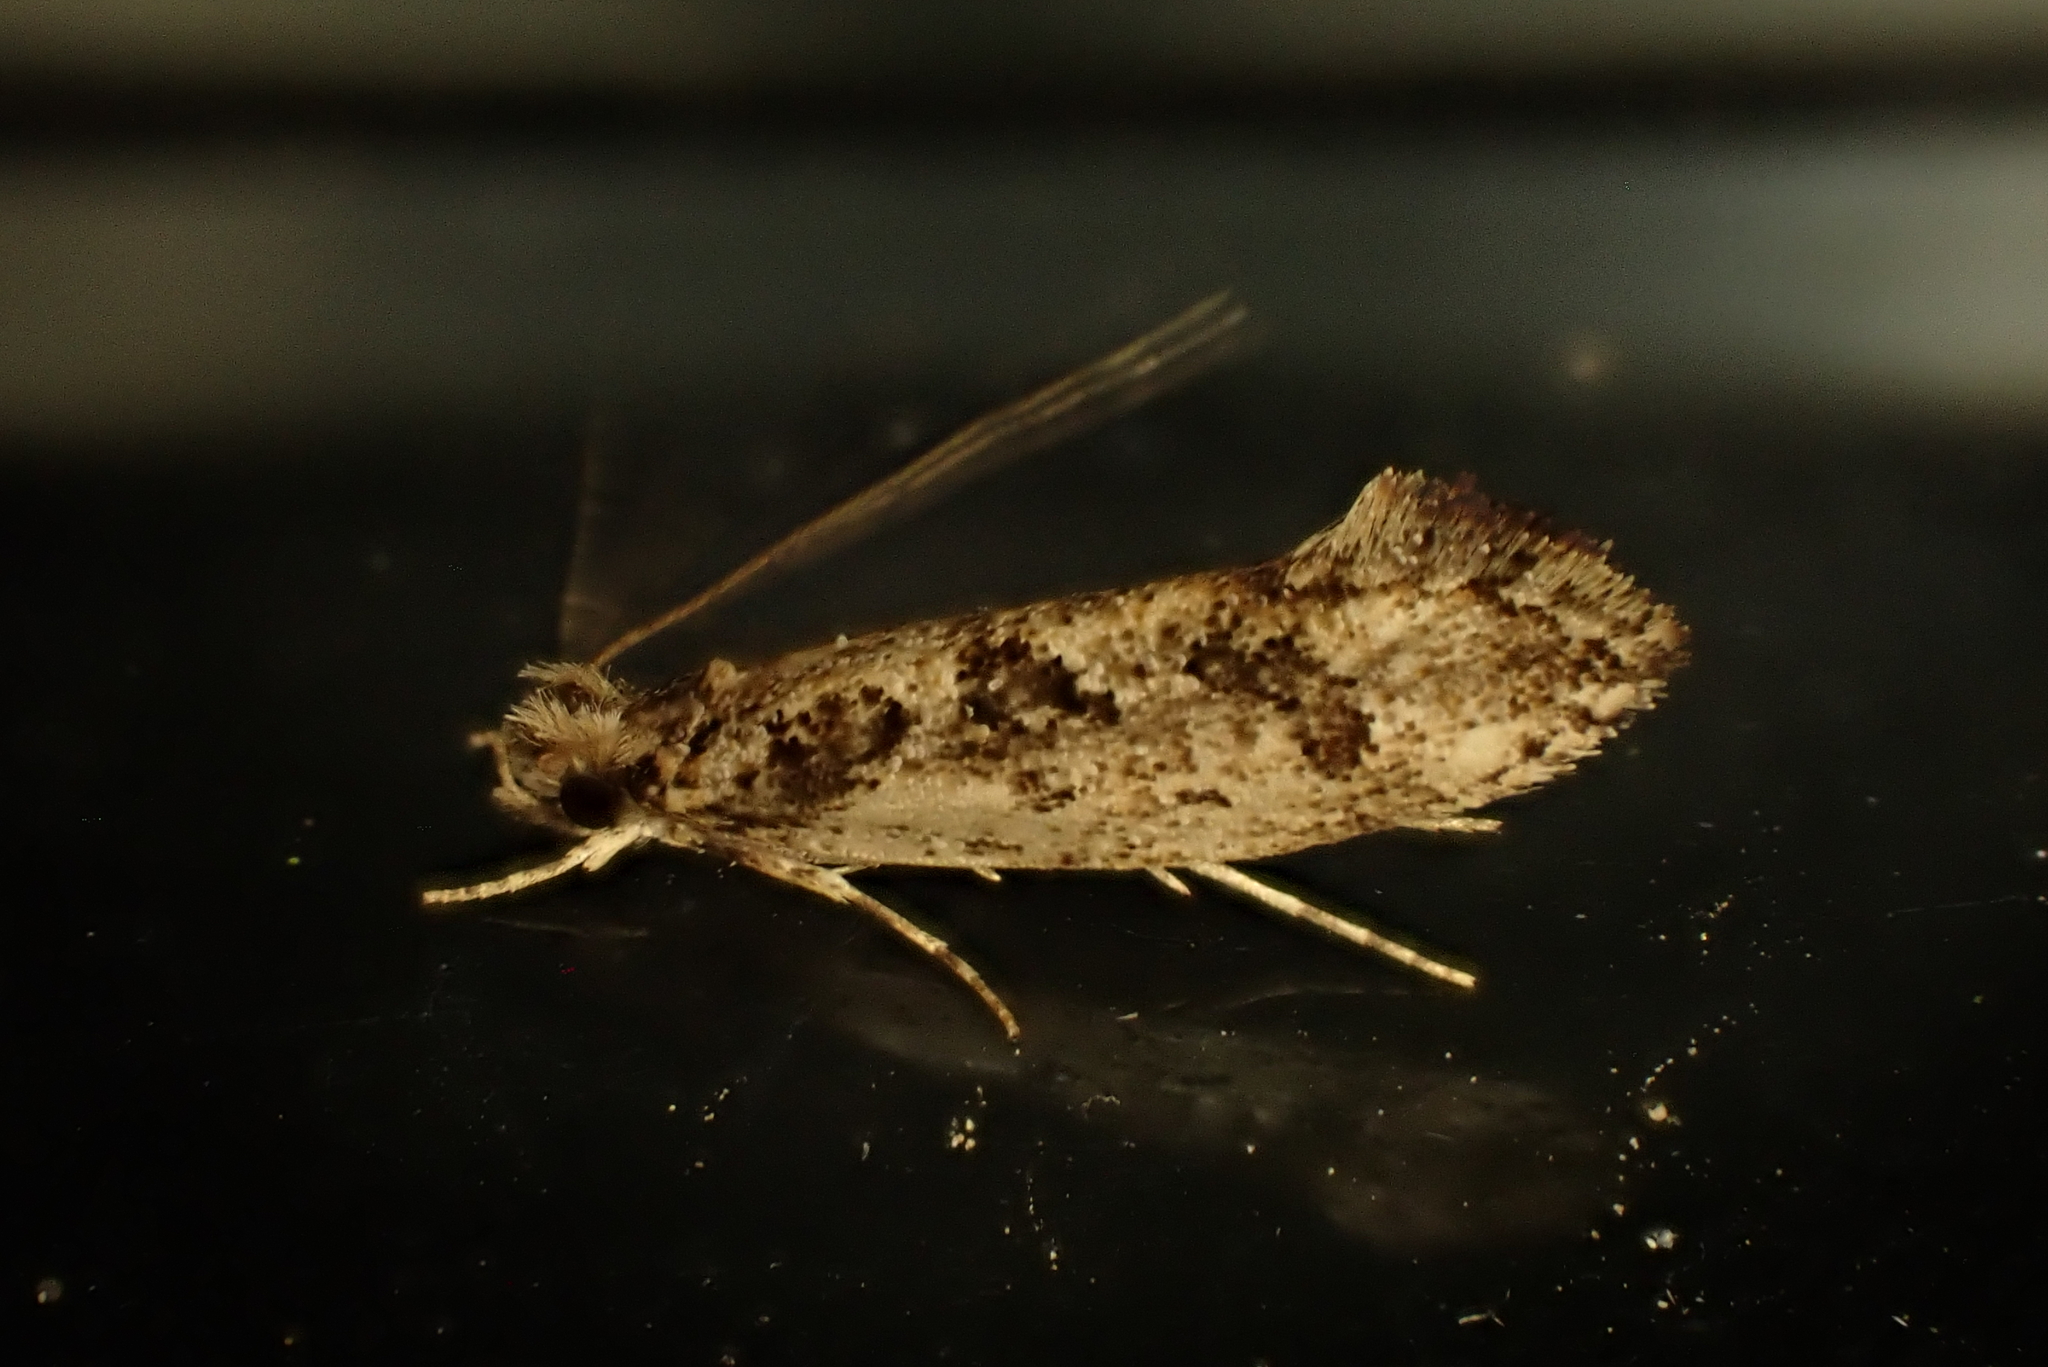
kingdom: Animalia
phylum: Arthropoda
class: Insecta
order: Lepidoptera
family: Tineidae
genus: Erechthias
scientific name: Erechthias capnitis
